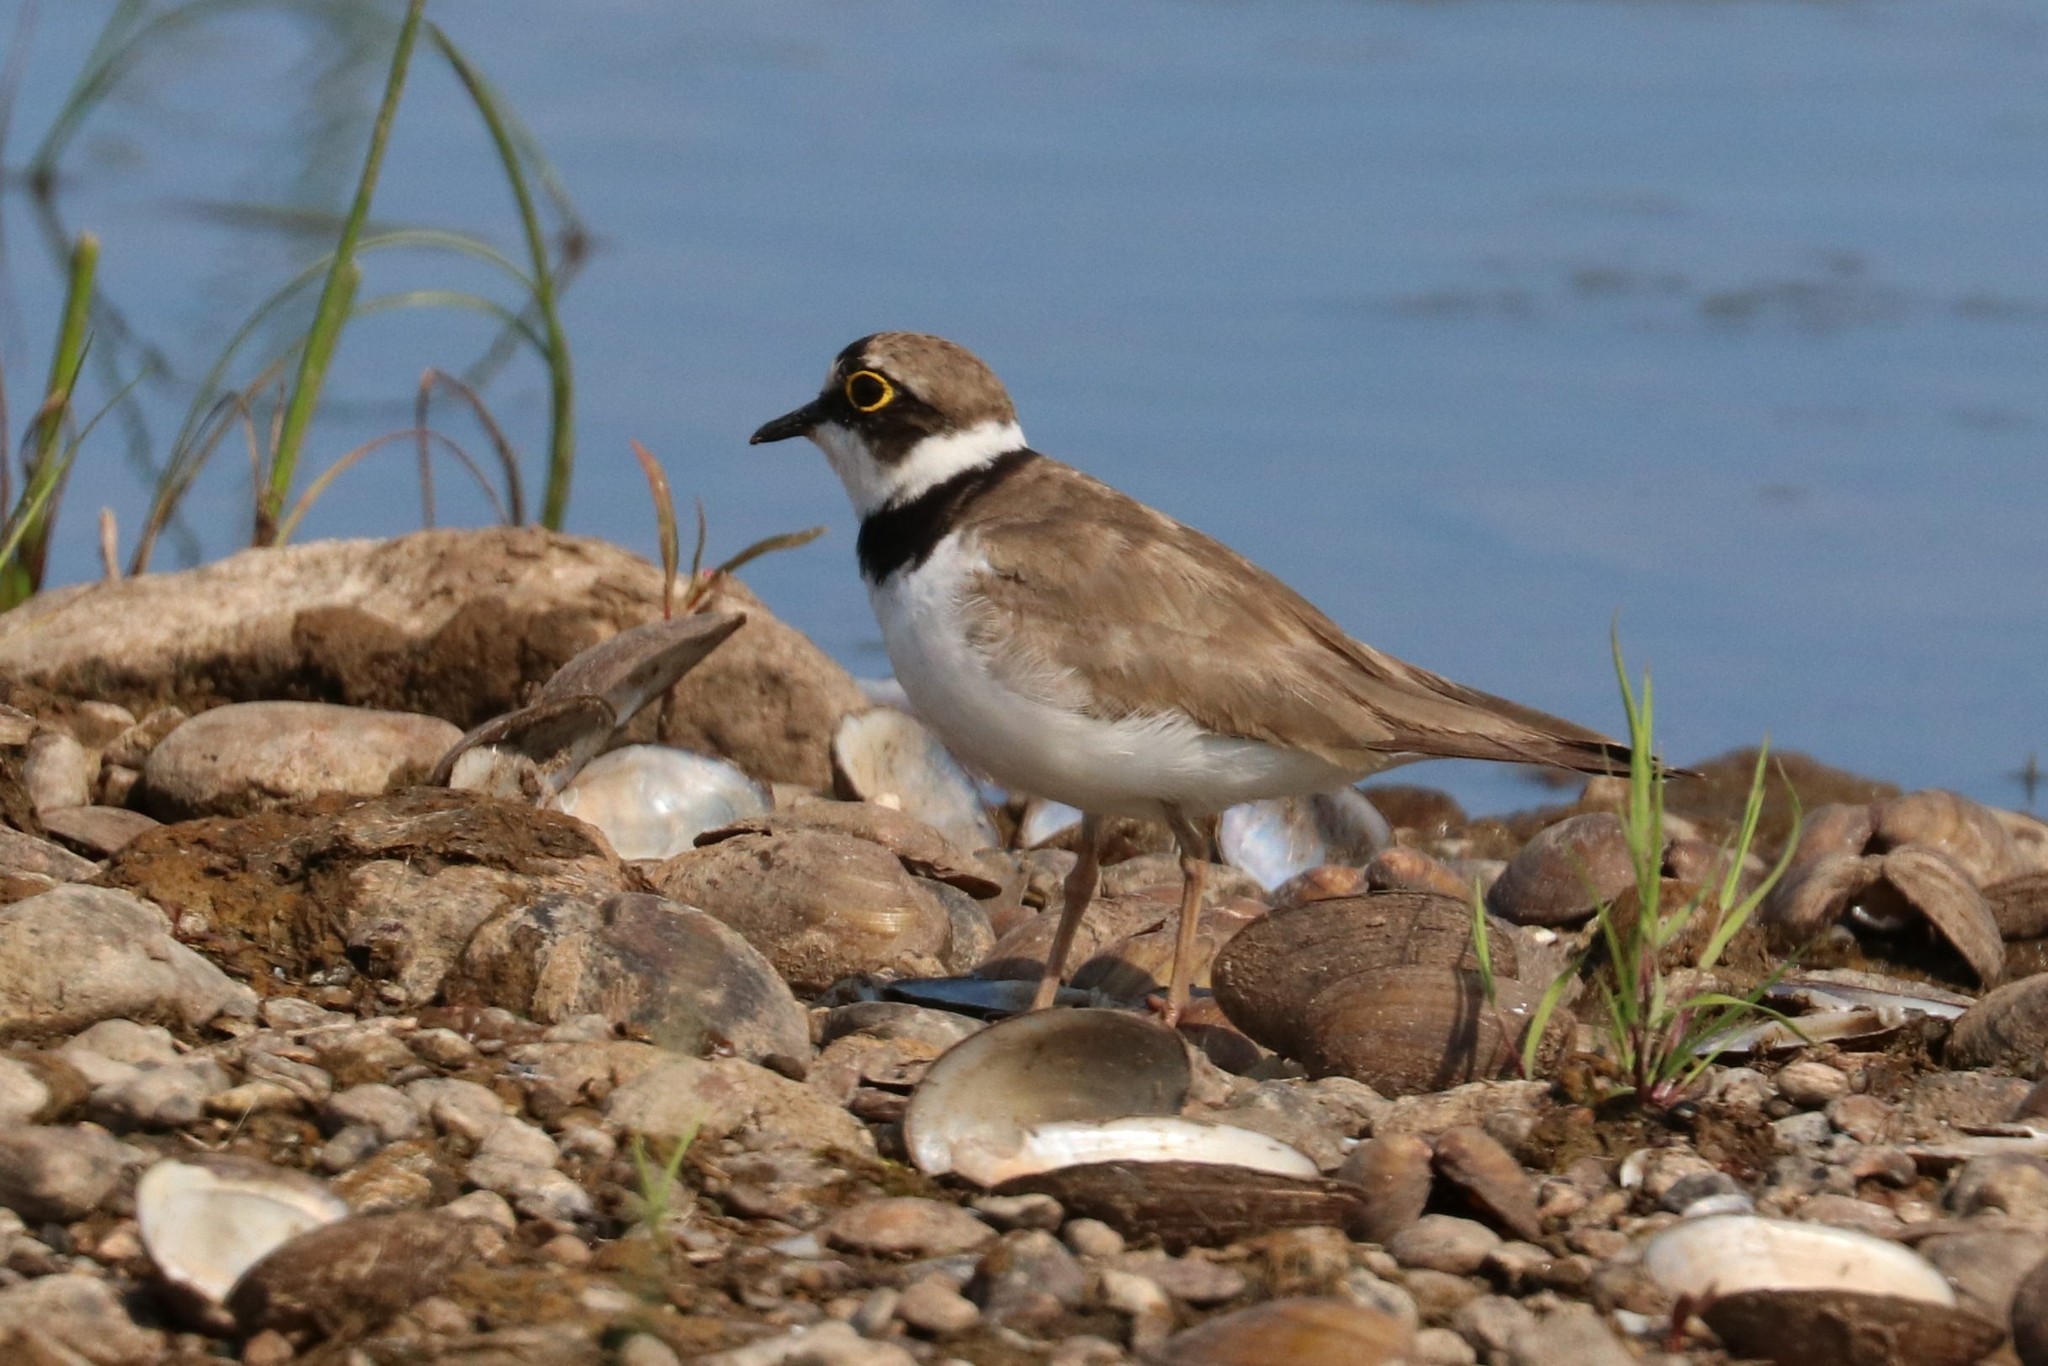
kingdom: Animalia
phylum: Chordata
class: Aves
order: Charadriiformes
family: Charadriidae
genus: Charadrius
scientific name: Charadrius dubius
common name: Little ringed plover
